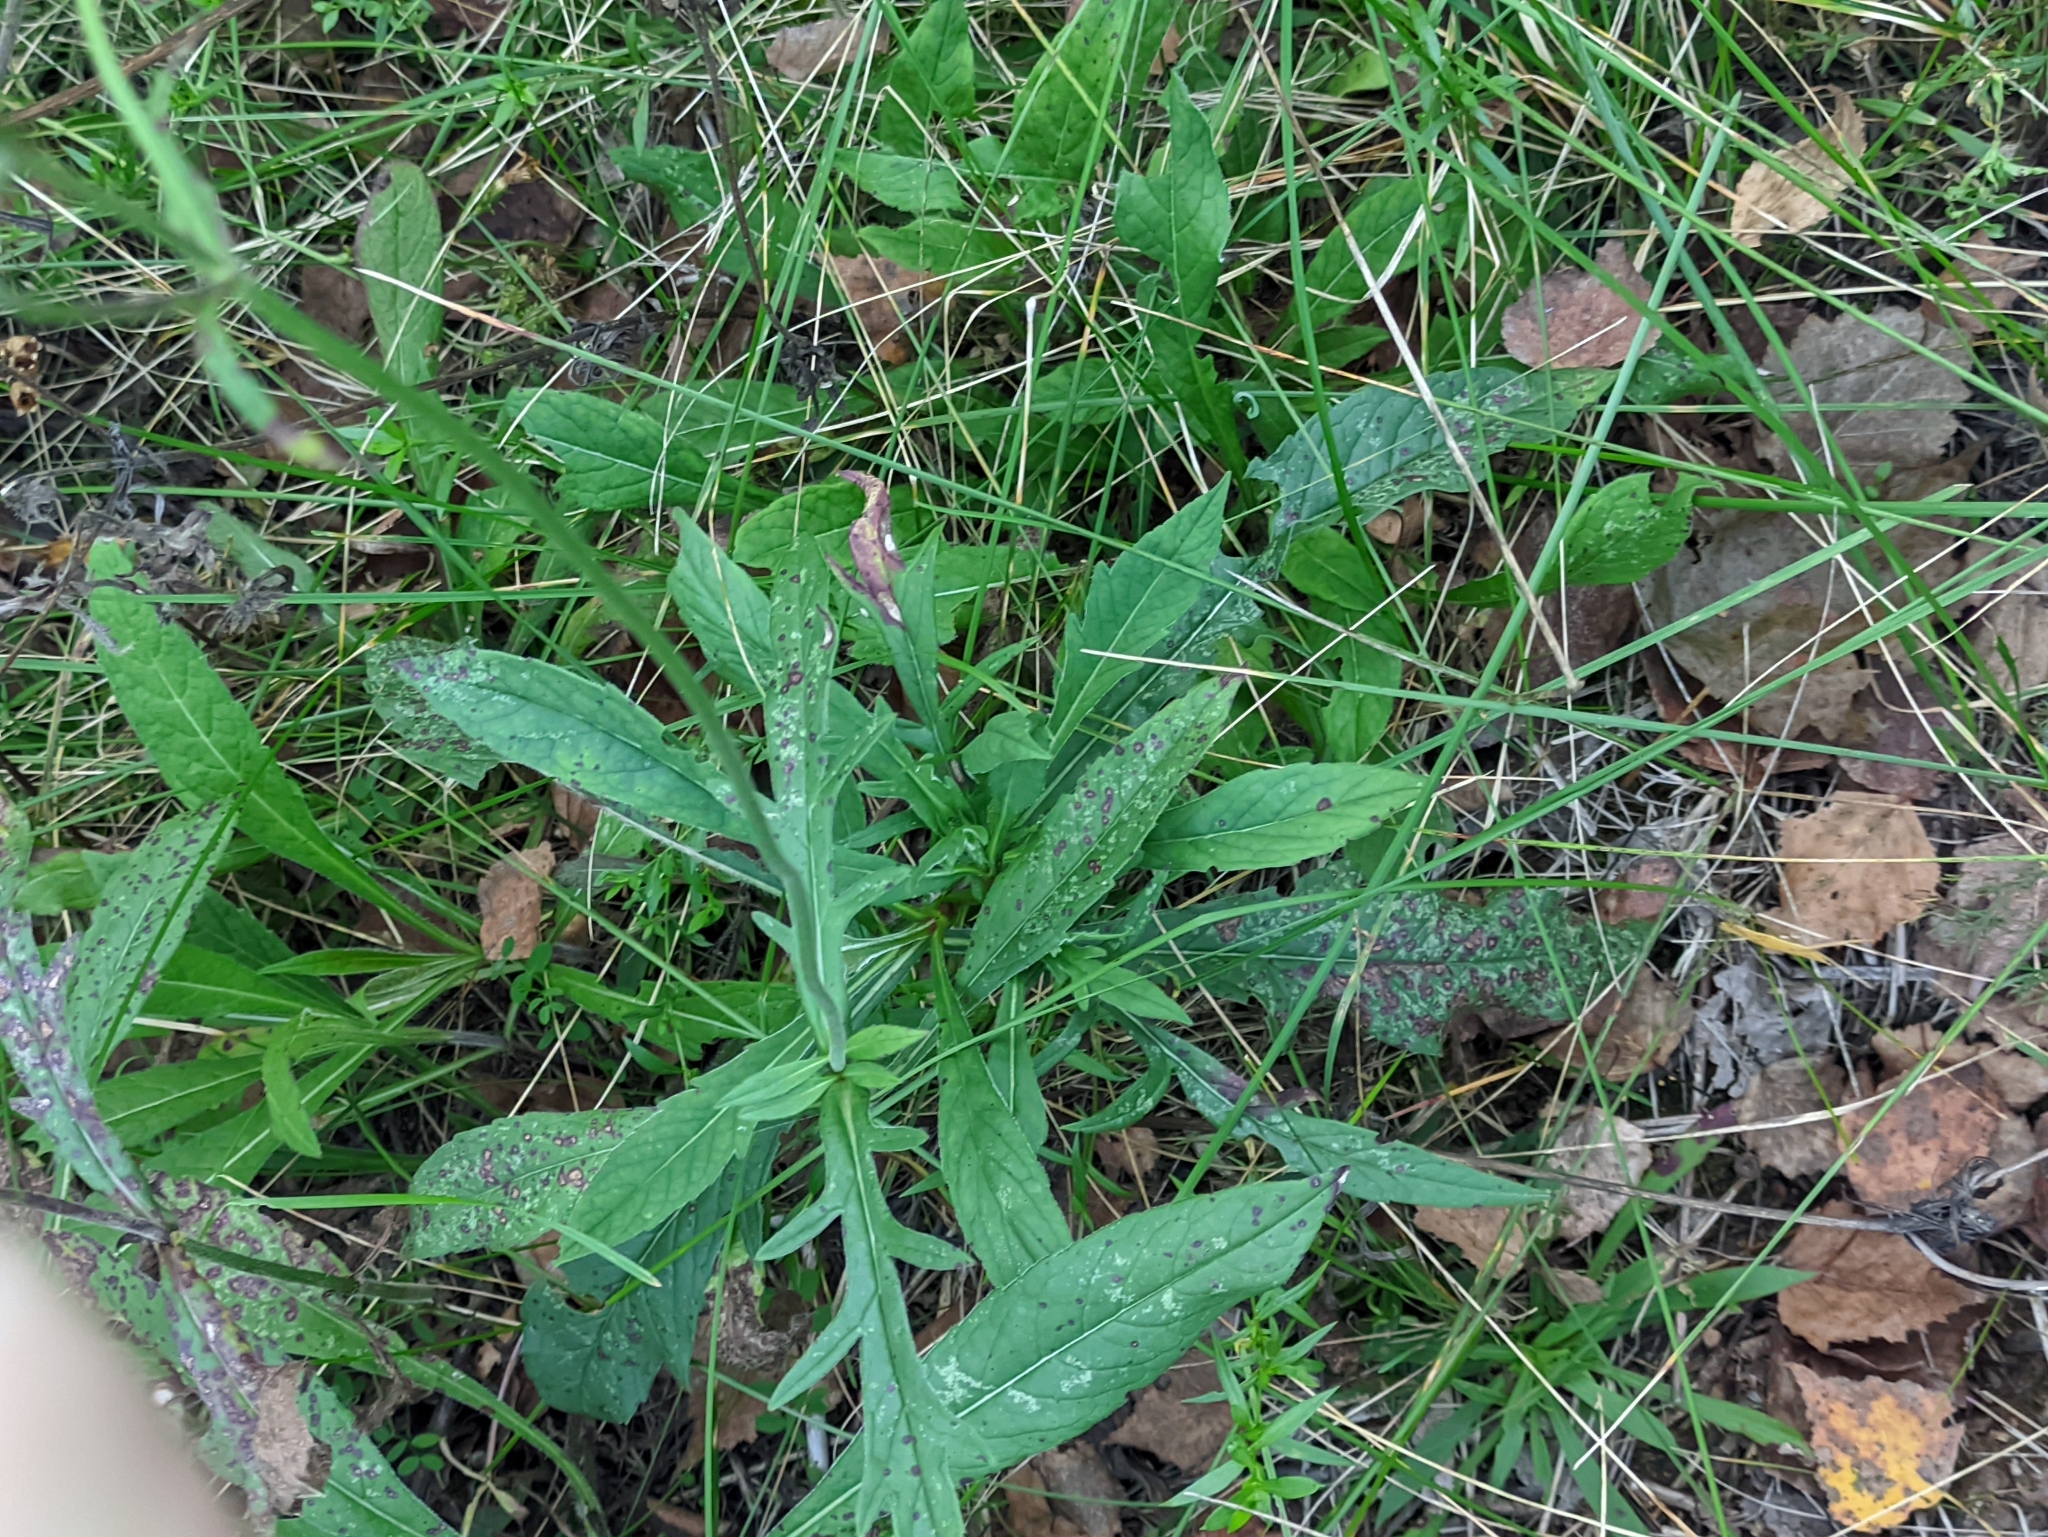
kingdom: Plantae
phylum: Tracheophyta
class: Magnoliopsida
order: Dipsacales
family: Caprifoliaceae
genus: Knautia
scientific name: Knautia arvensis
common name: Field scabiosa
